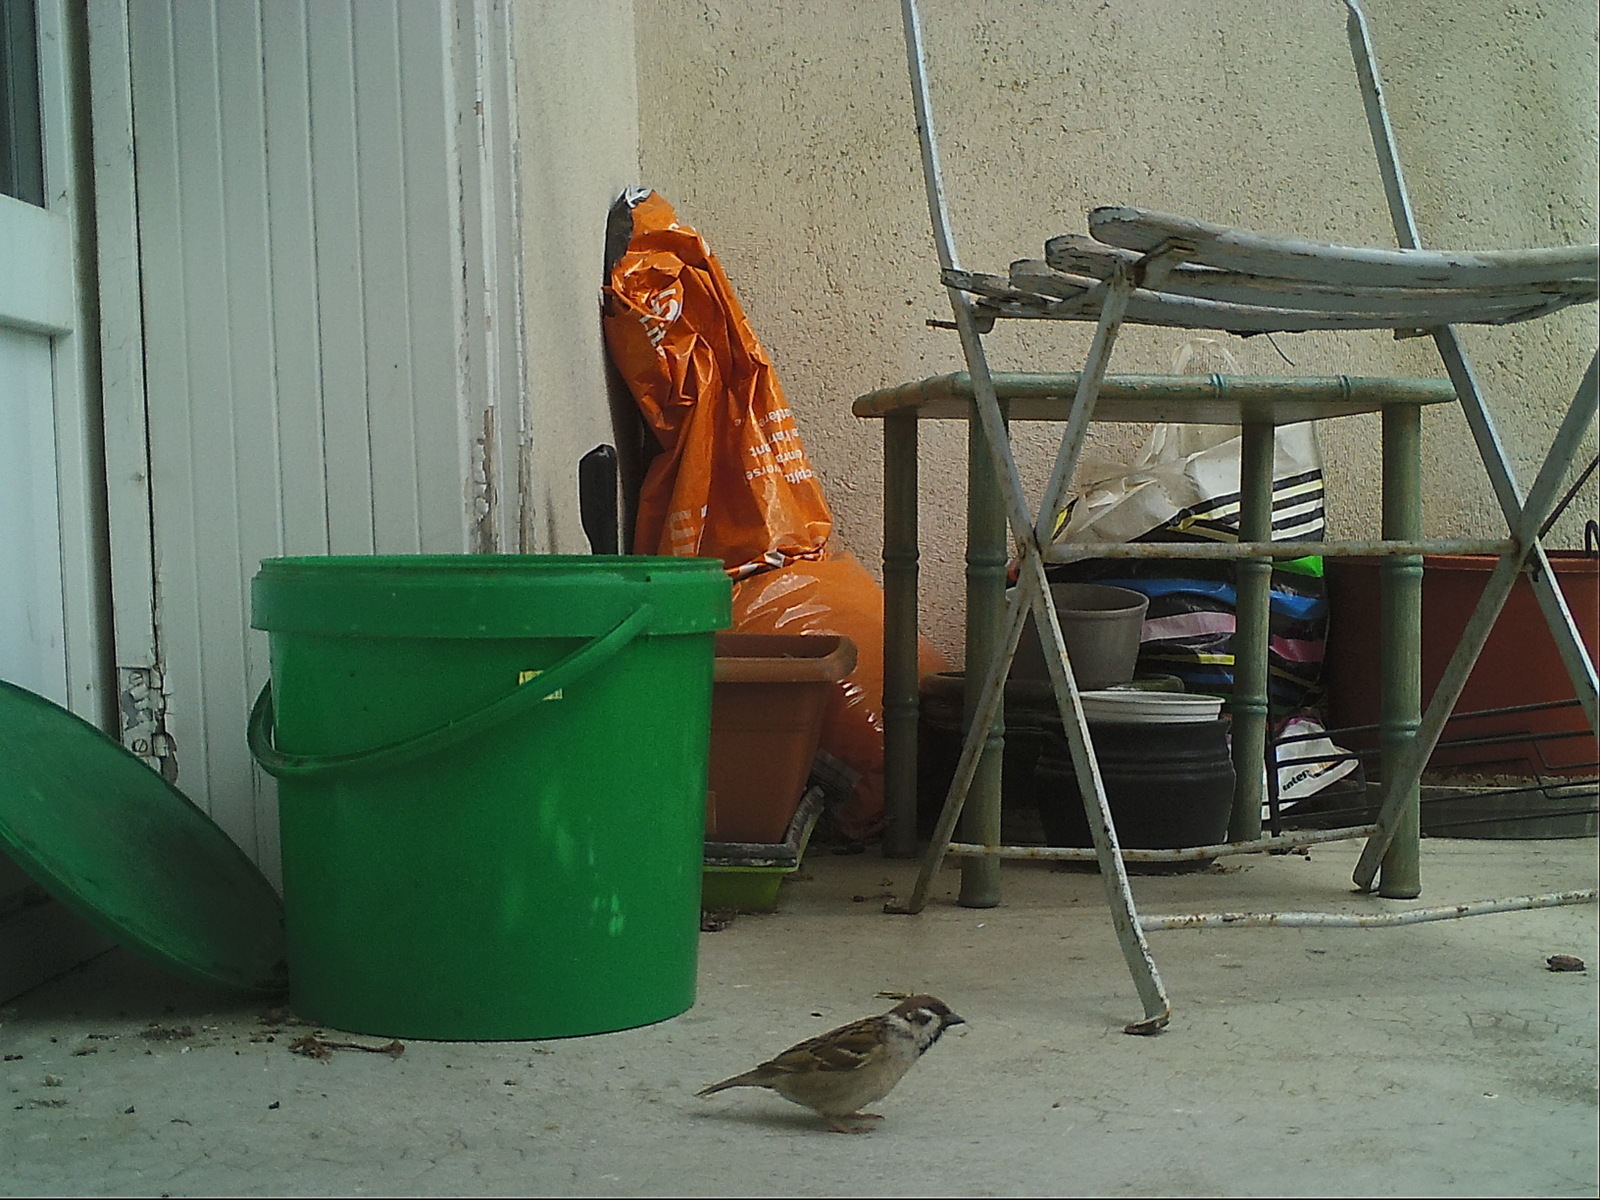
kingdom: Animalia
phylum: Chordata
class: Aves
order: Passeriformes
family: Passeridae
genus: Passer
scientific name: Passer montanus
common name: Eurasian tree sparrow
